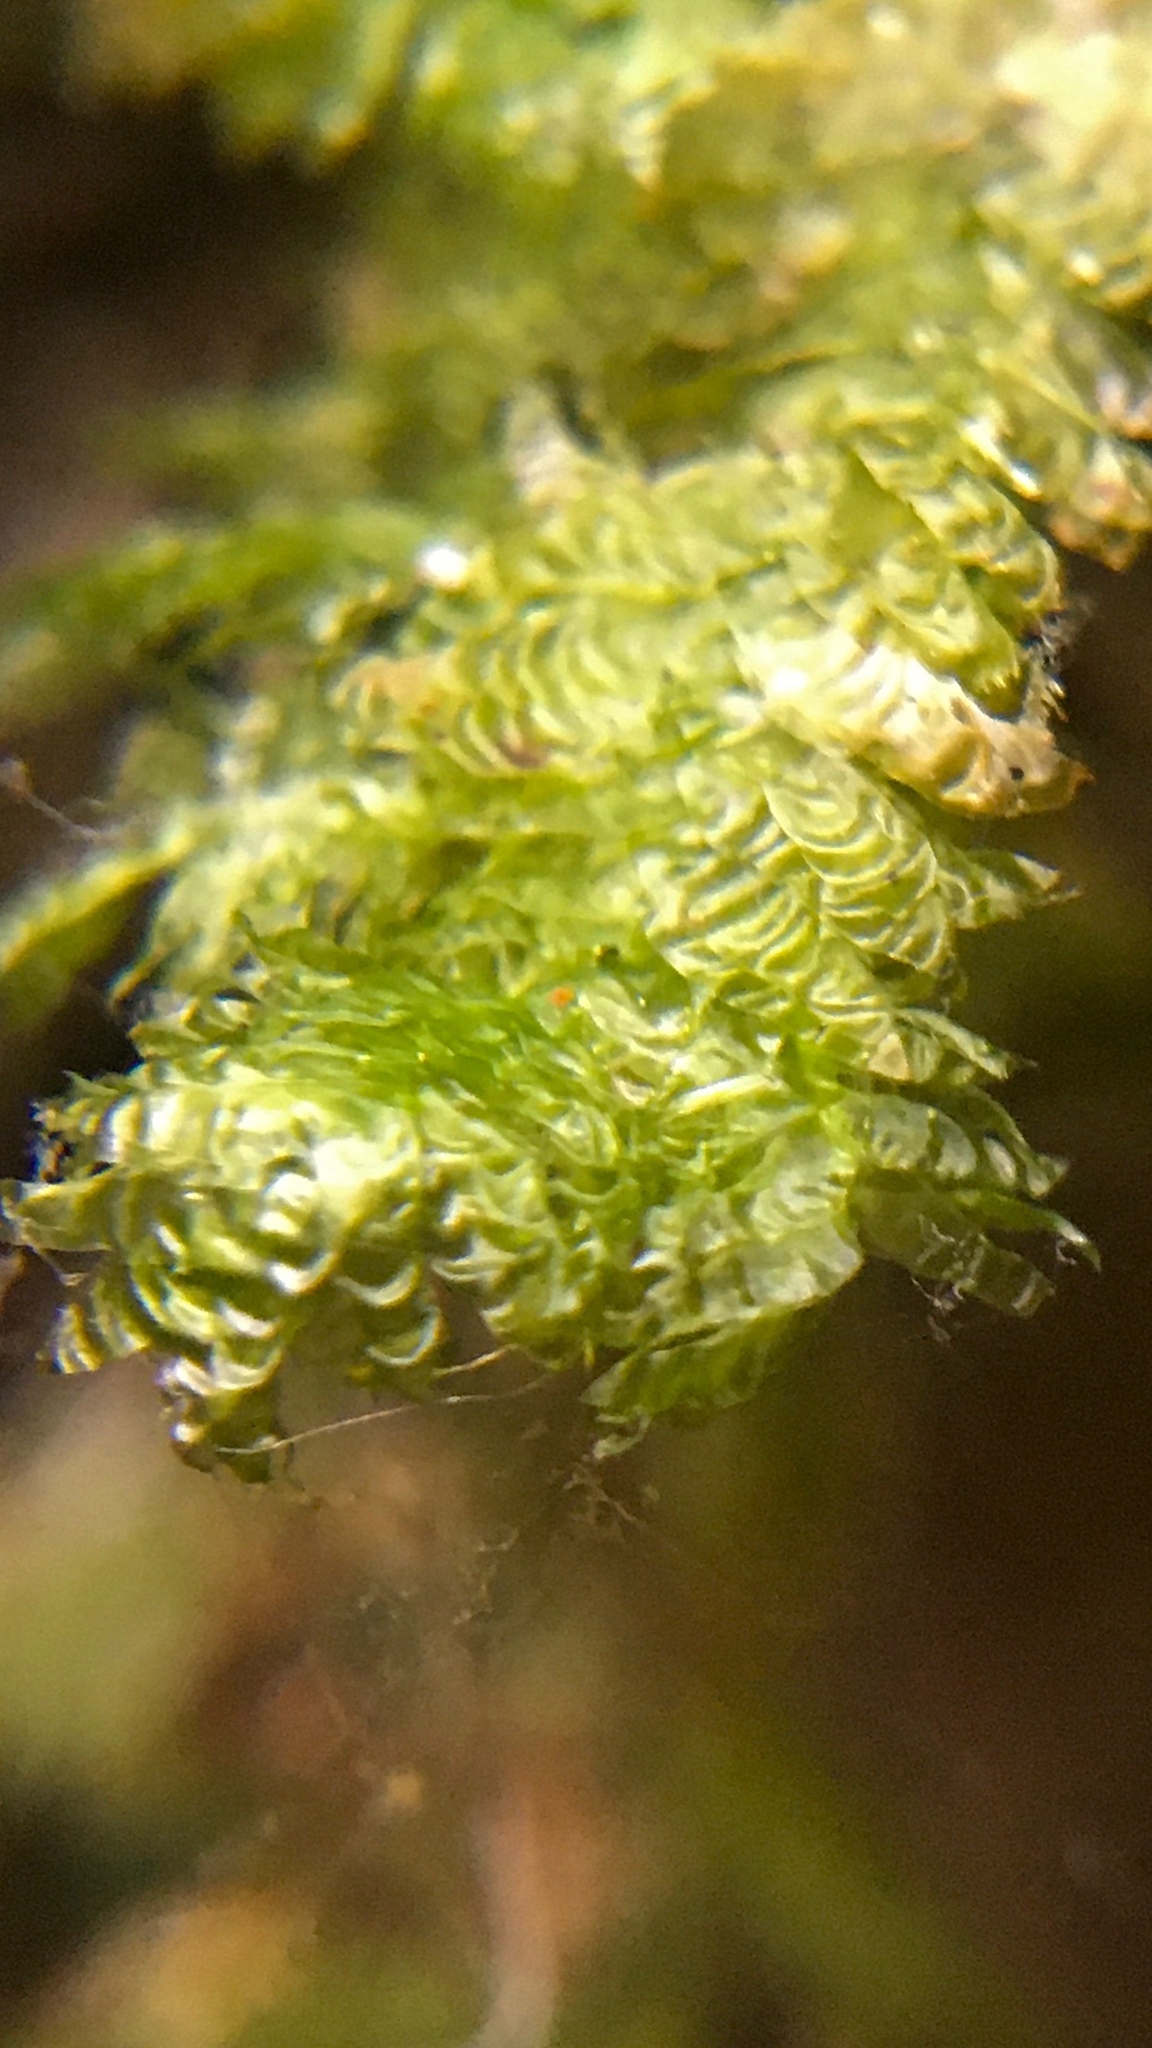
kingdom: Plantae
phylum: Bryophyta
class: Bryopsida
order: Hypnales
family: Neckeraceae
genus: Alleniella
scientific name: Alleniella ehrenbergii
